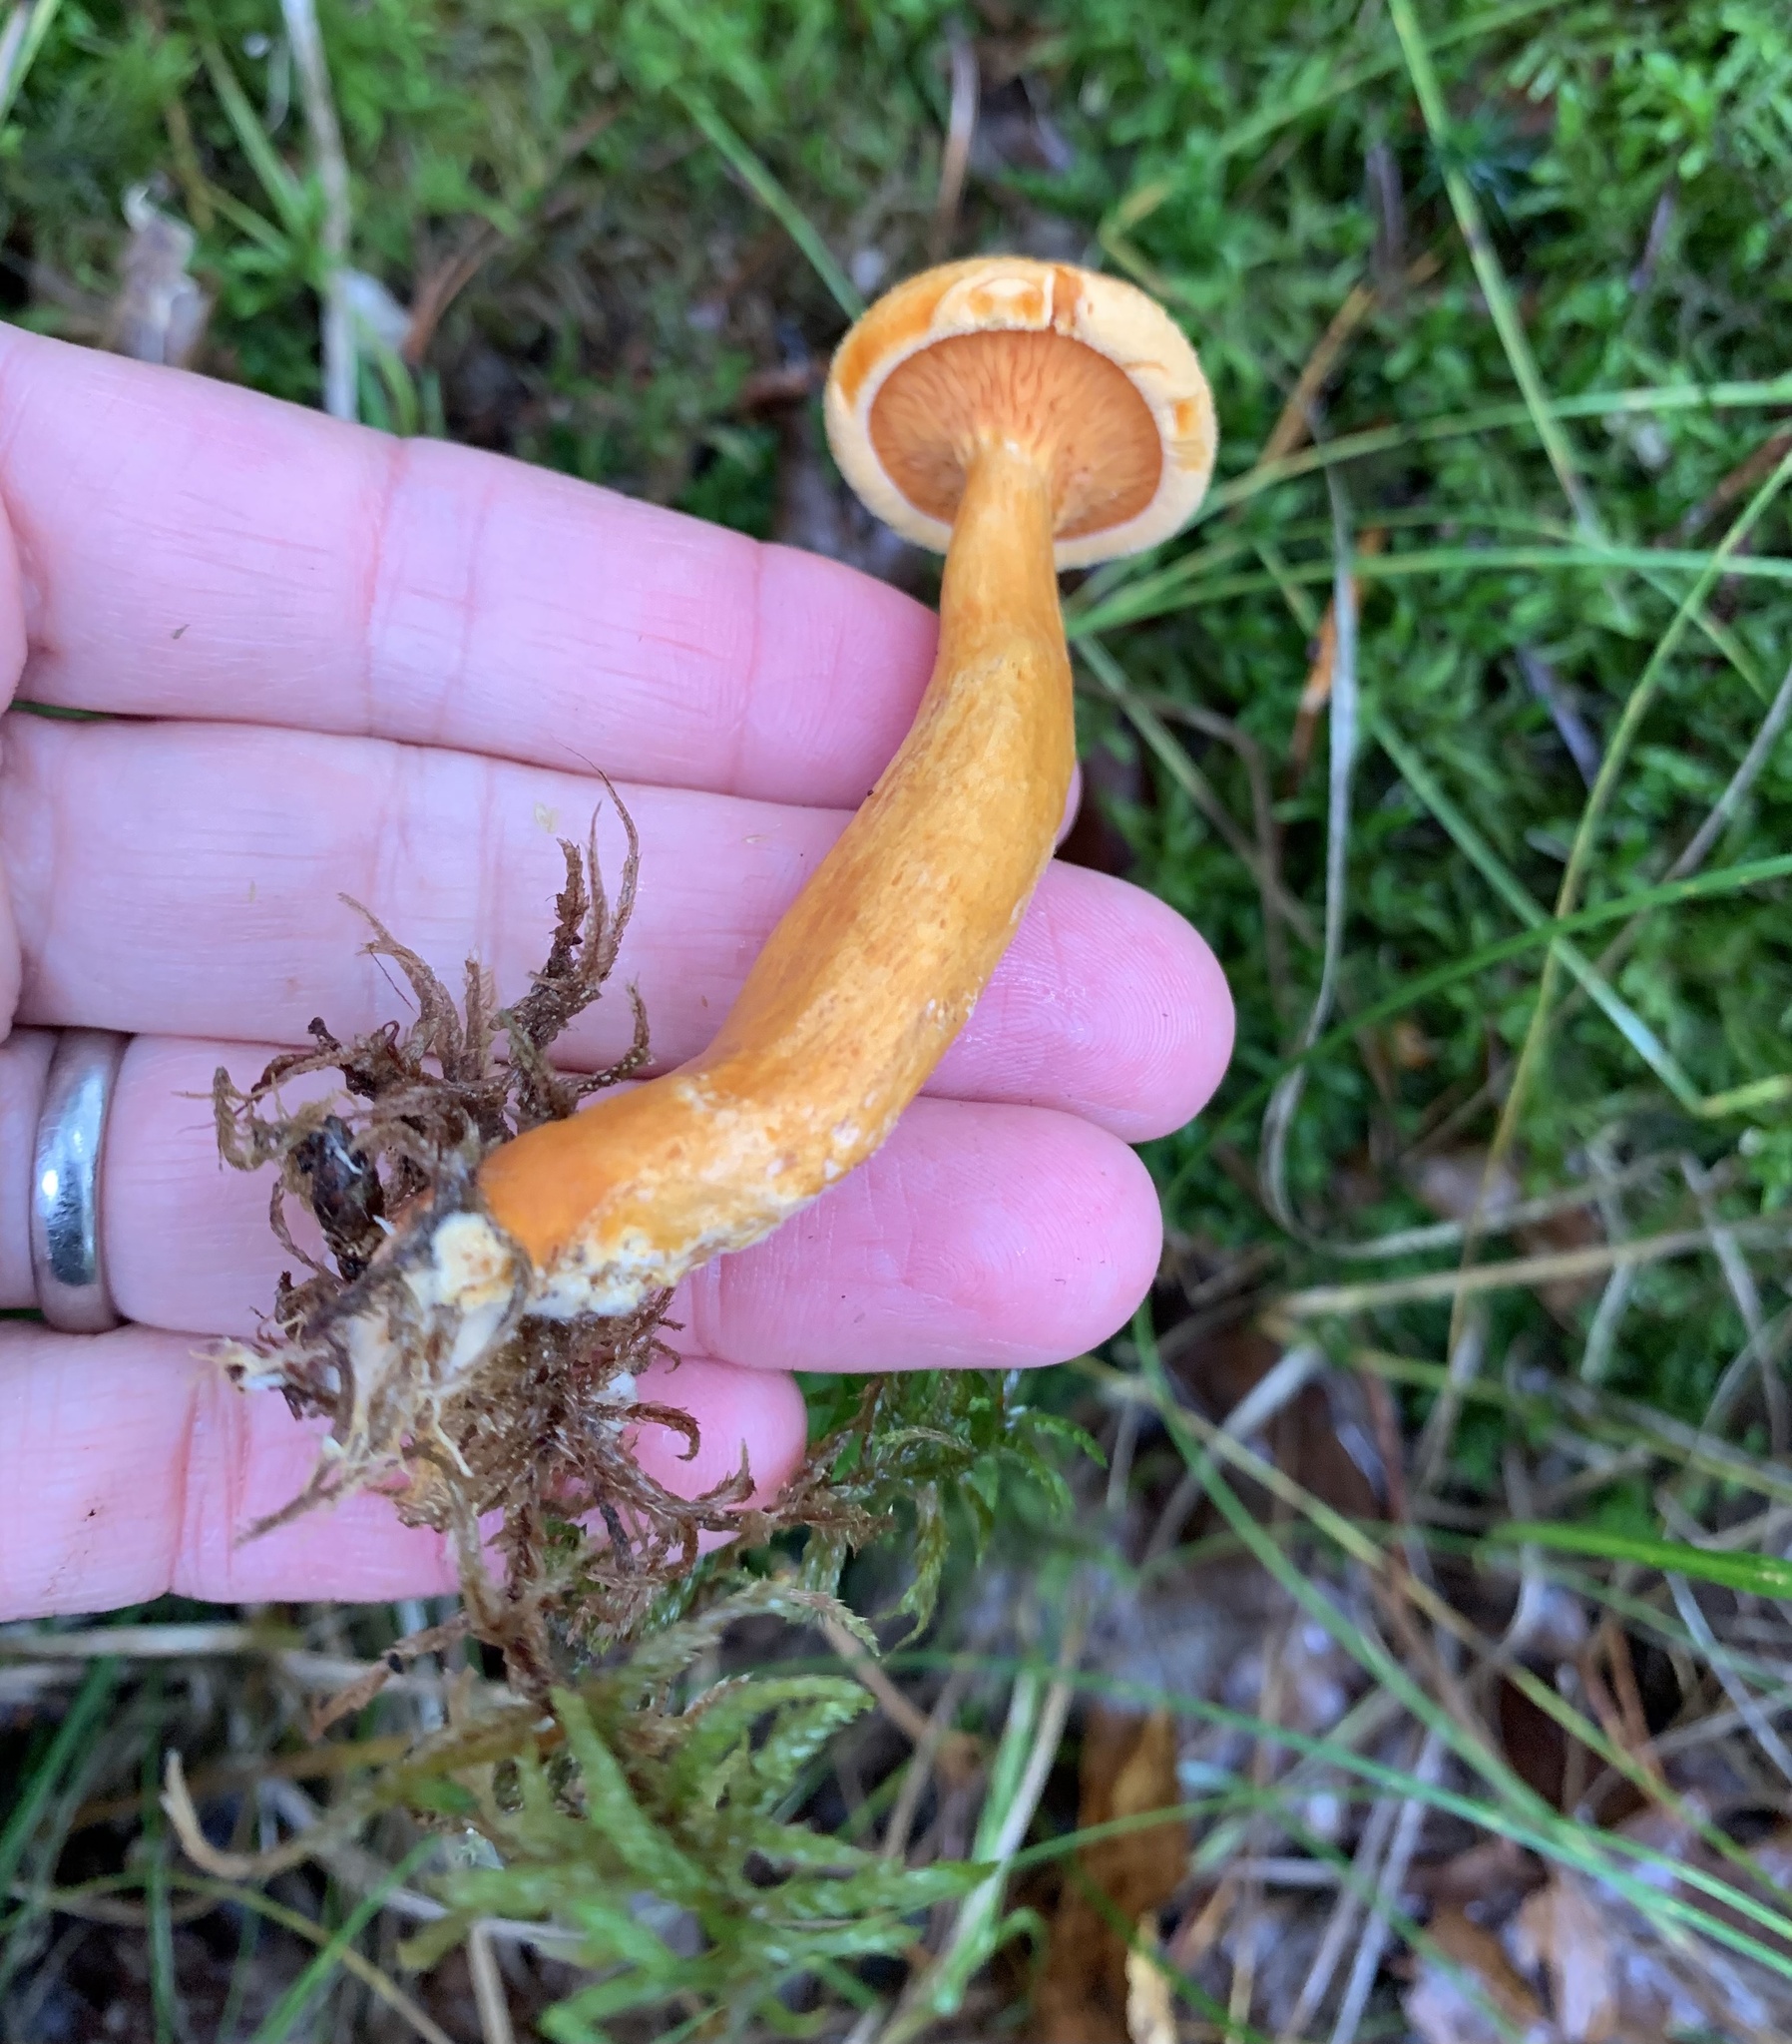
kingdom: Fungi
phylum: Basidiomycota
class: Agaricomycetes
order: Boletales
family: Hygrophoropsidaceae
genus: Hygrophoropsis
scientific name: Hygrophoropsis aurantiaca
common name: False chanterelle
